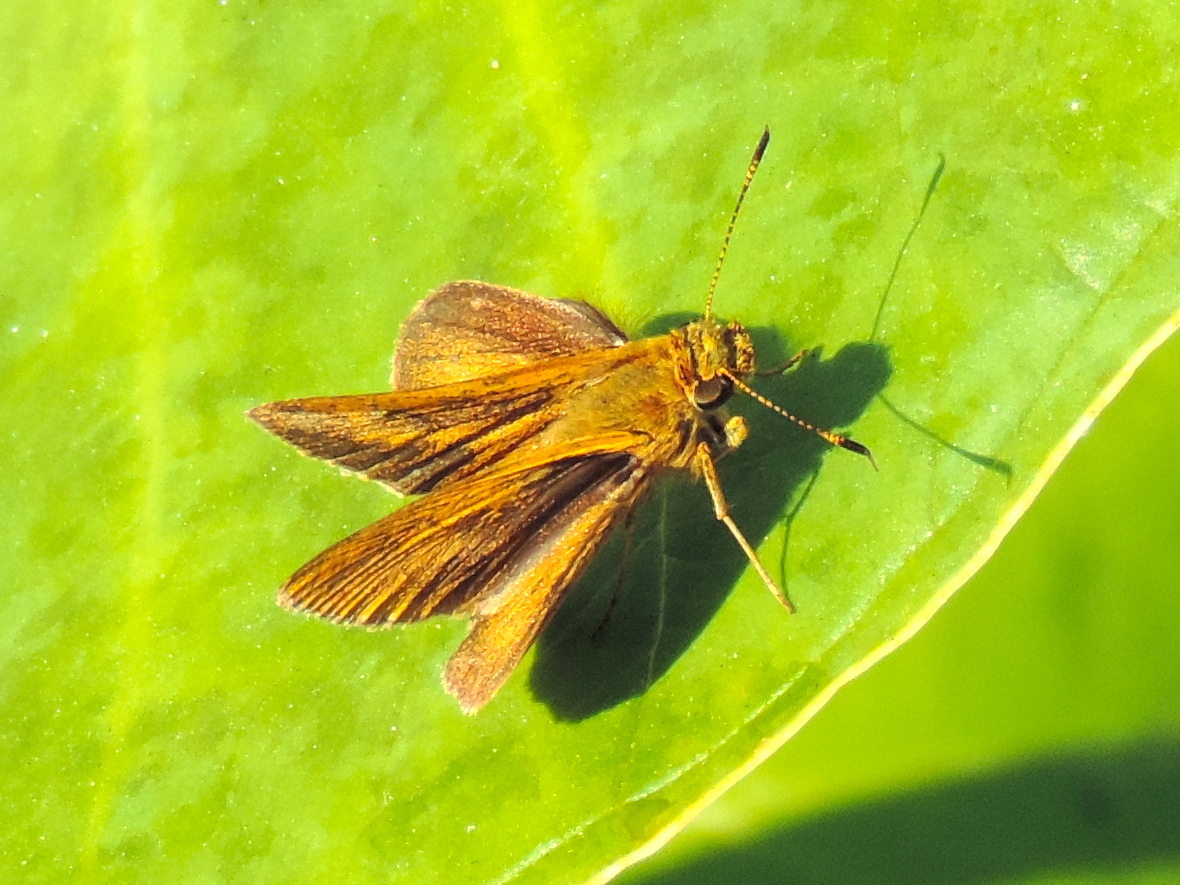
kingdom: Animalia
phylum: Arthropoda
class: Insecta
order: Lepidoptera
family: Hesperiidae
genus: Corticea
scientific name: Corticea corticea
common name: Redundant skipper
